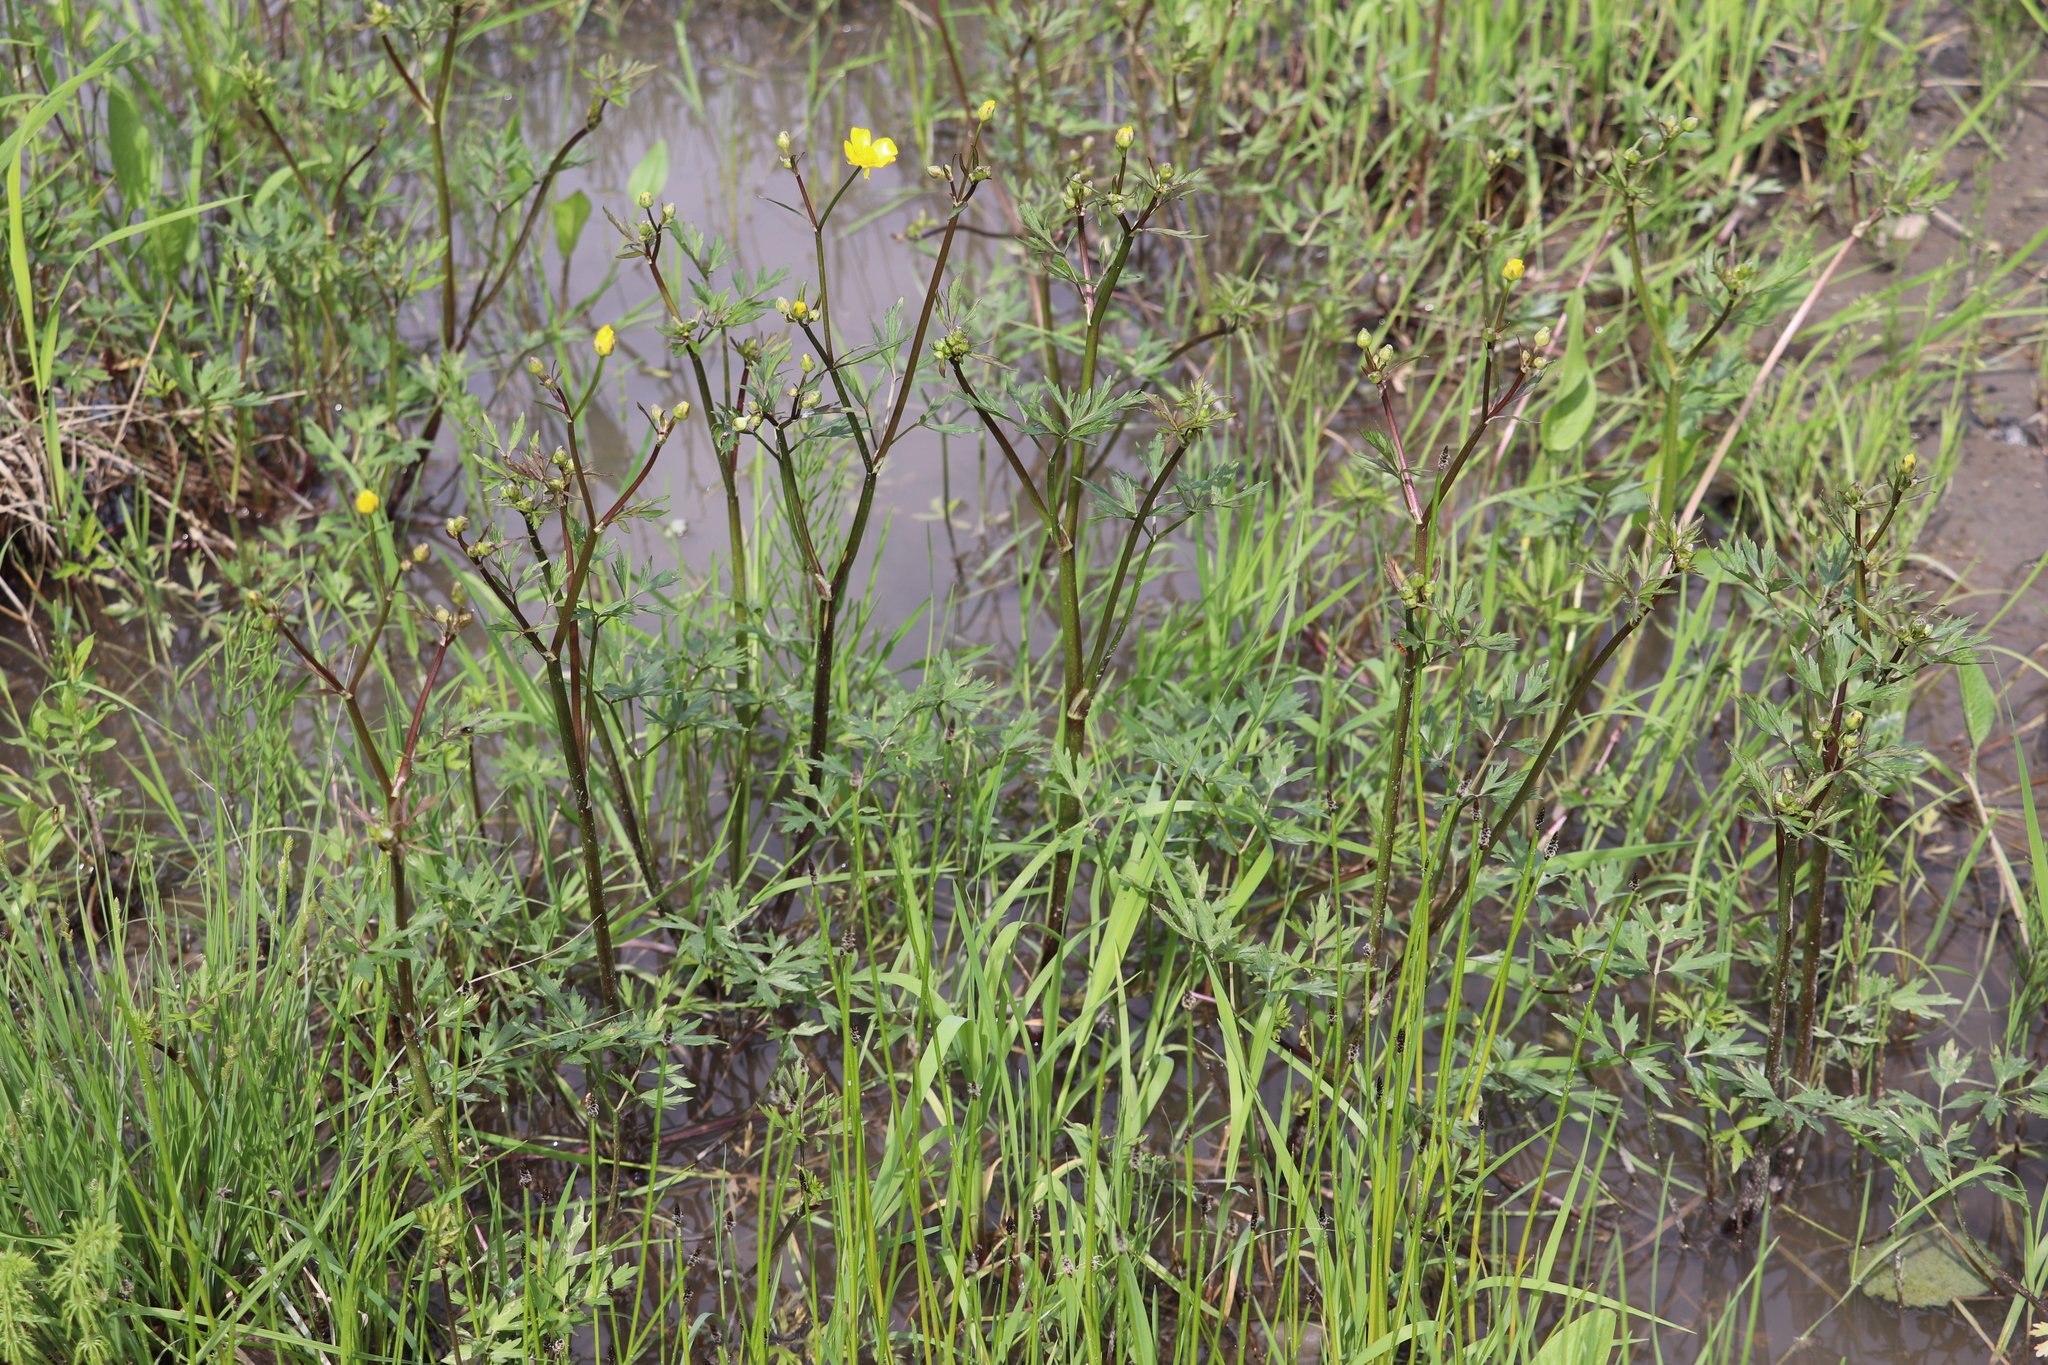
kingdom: Plantae
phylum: Tracheophyta
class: Magnoliopsida
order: Ranunculales
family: Ranunculaceae
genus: Ranunculus
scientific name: Ranunculus repens
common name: Creeping buttercup
